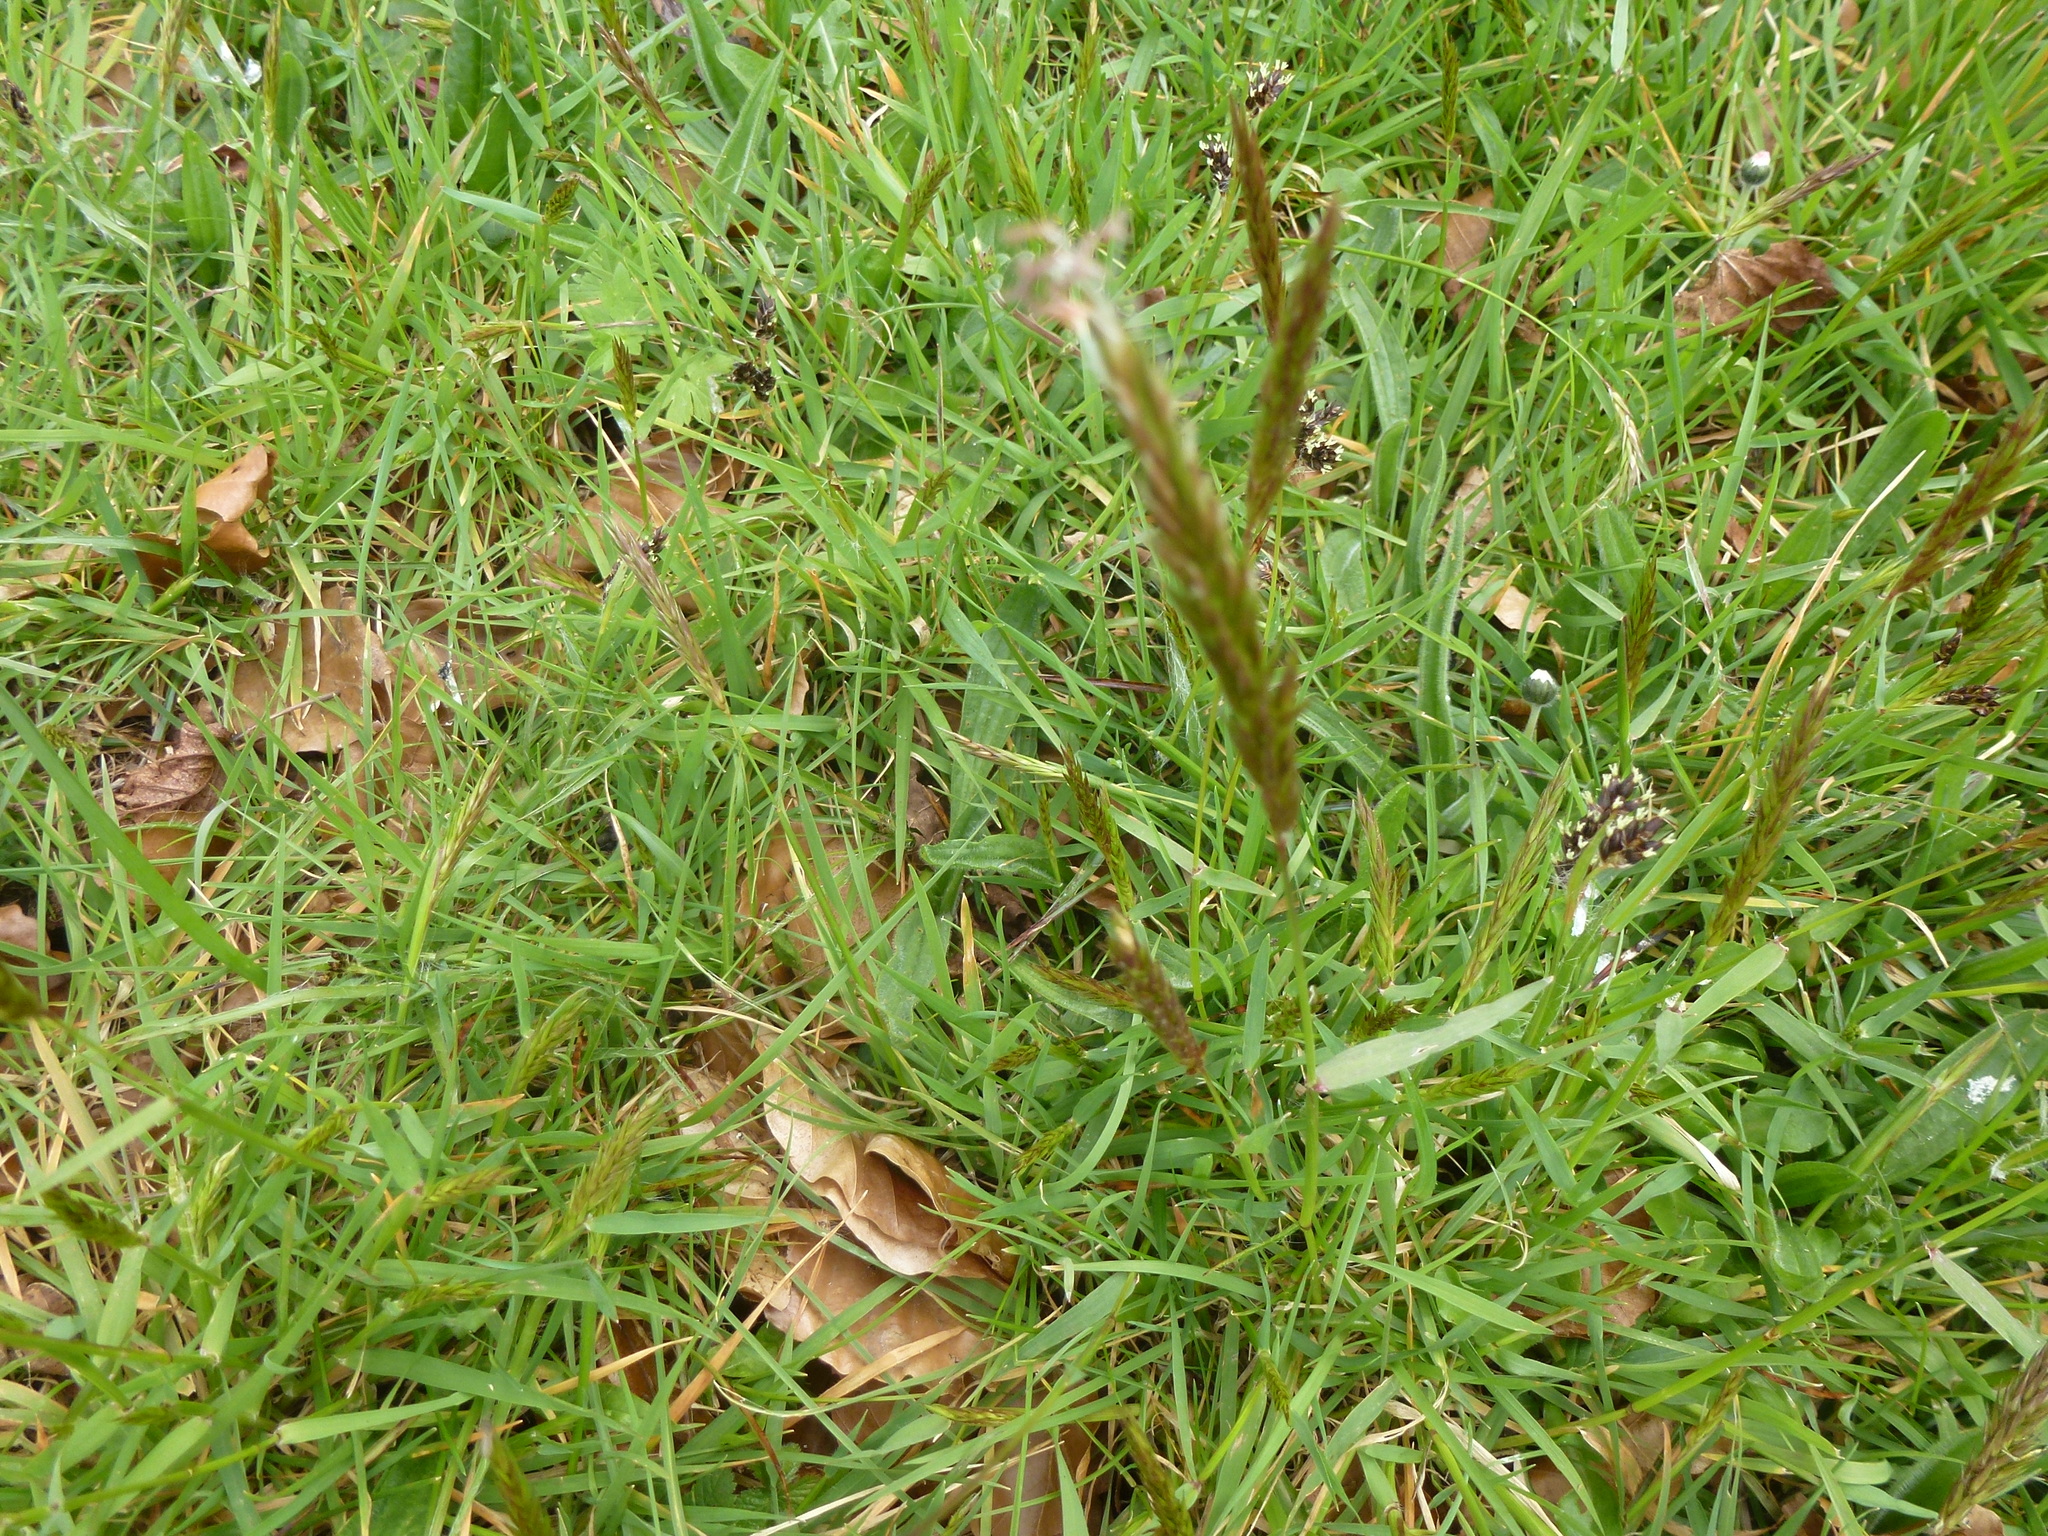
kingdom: Plantae
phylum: Tracheophyta
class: Liliopsida
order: Poales
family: Poaceae
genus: Anthoxanthum
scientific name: Anthoxanthum odoratum
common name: Sweet vernalgrass
